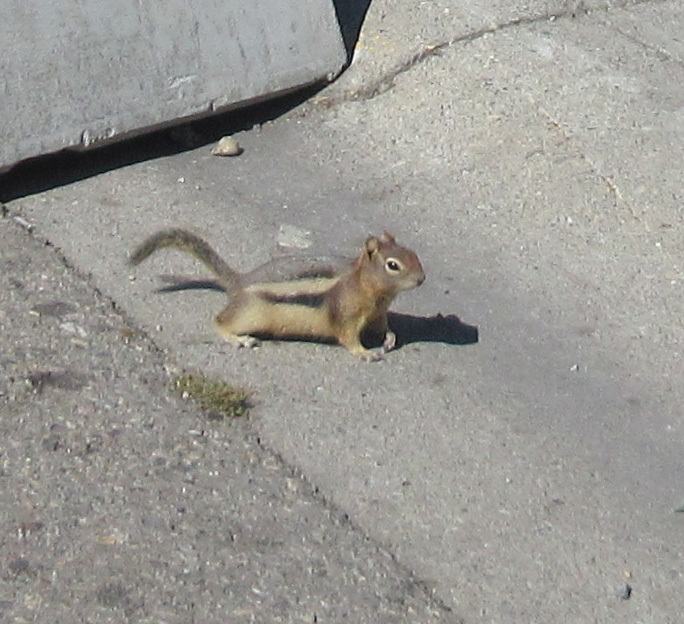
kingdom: Animalia
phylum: Chordata
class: Mammalia
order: Rodentia
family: Sciuridae
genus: Callospermophilus
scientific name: Callospermophilus lateralis
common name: Golden-mantled ground squirrel
